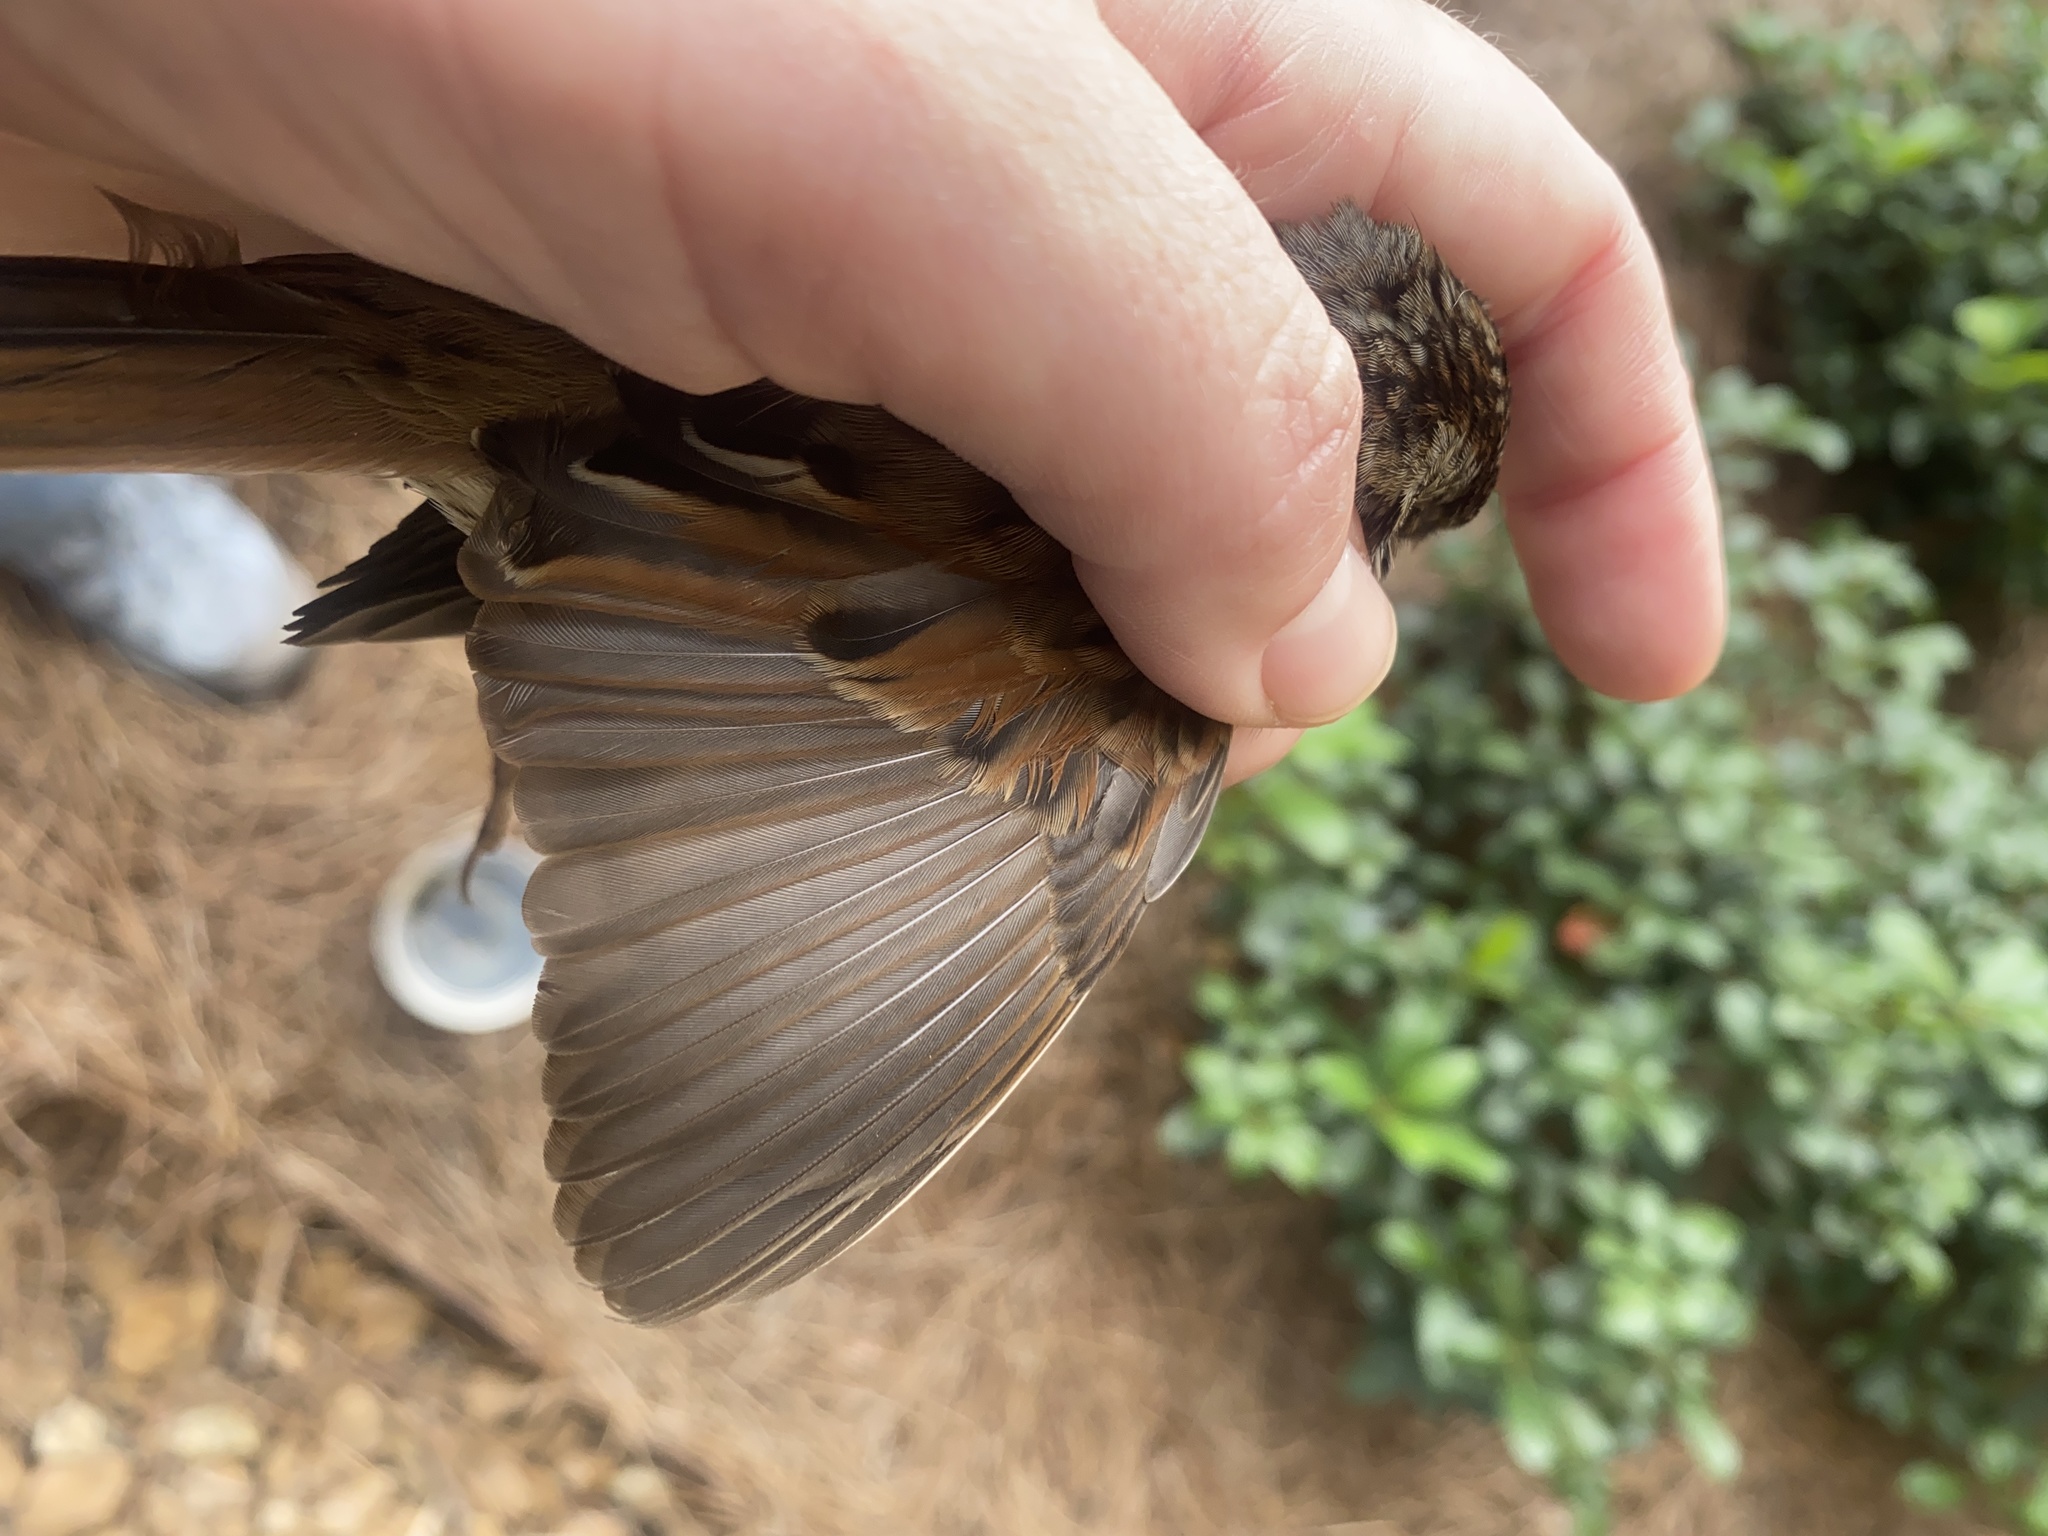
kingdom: Animalia
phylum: Chordata
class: Aves
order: Passeriformes
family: Passerellidae
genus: Melospiza
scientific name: Melospiza georgiana
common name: Swamp sparrow
